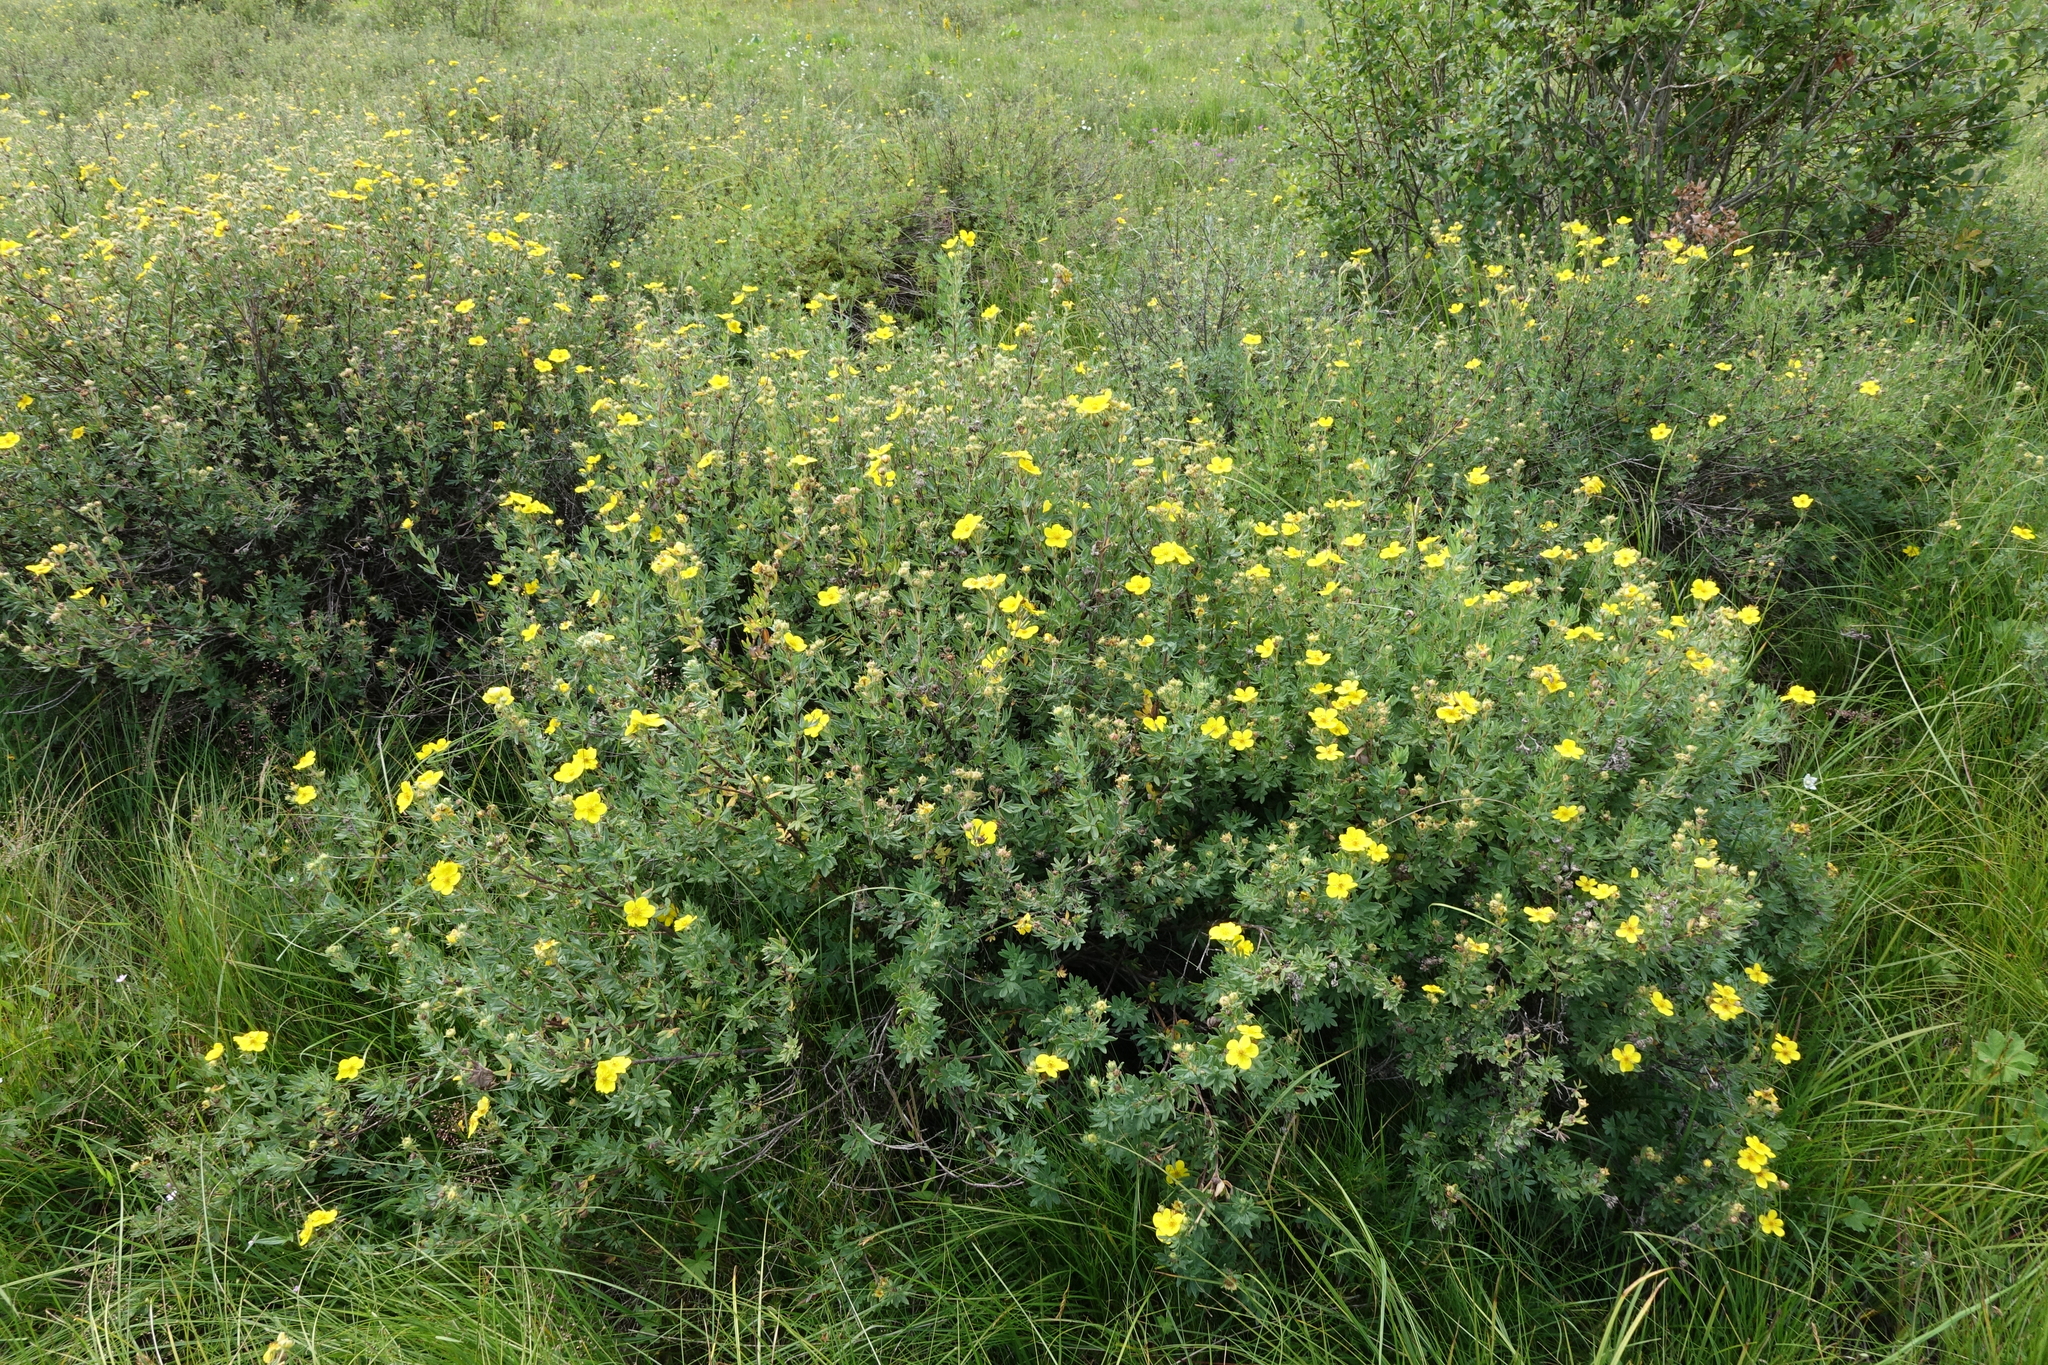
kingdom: Plantae
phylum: Tracheophyta
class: Magnoliopsida
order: Rosales
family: Rosaceae
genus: Dasiphora
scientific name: Dasiphora fruticosa
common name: Shrubby cinquefoil
